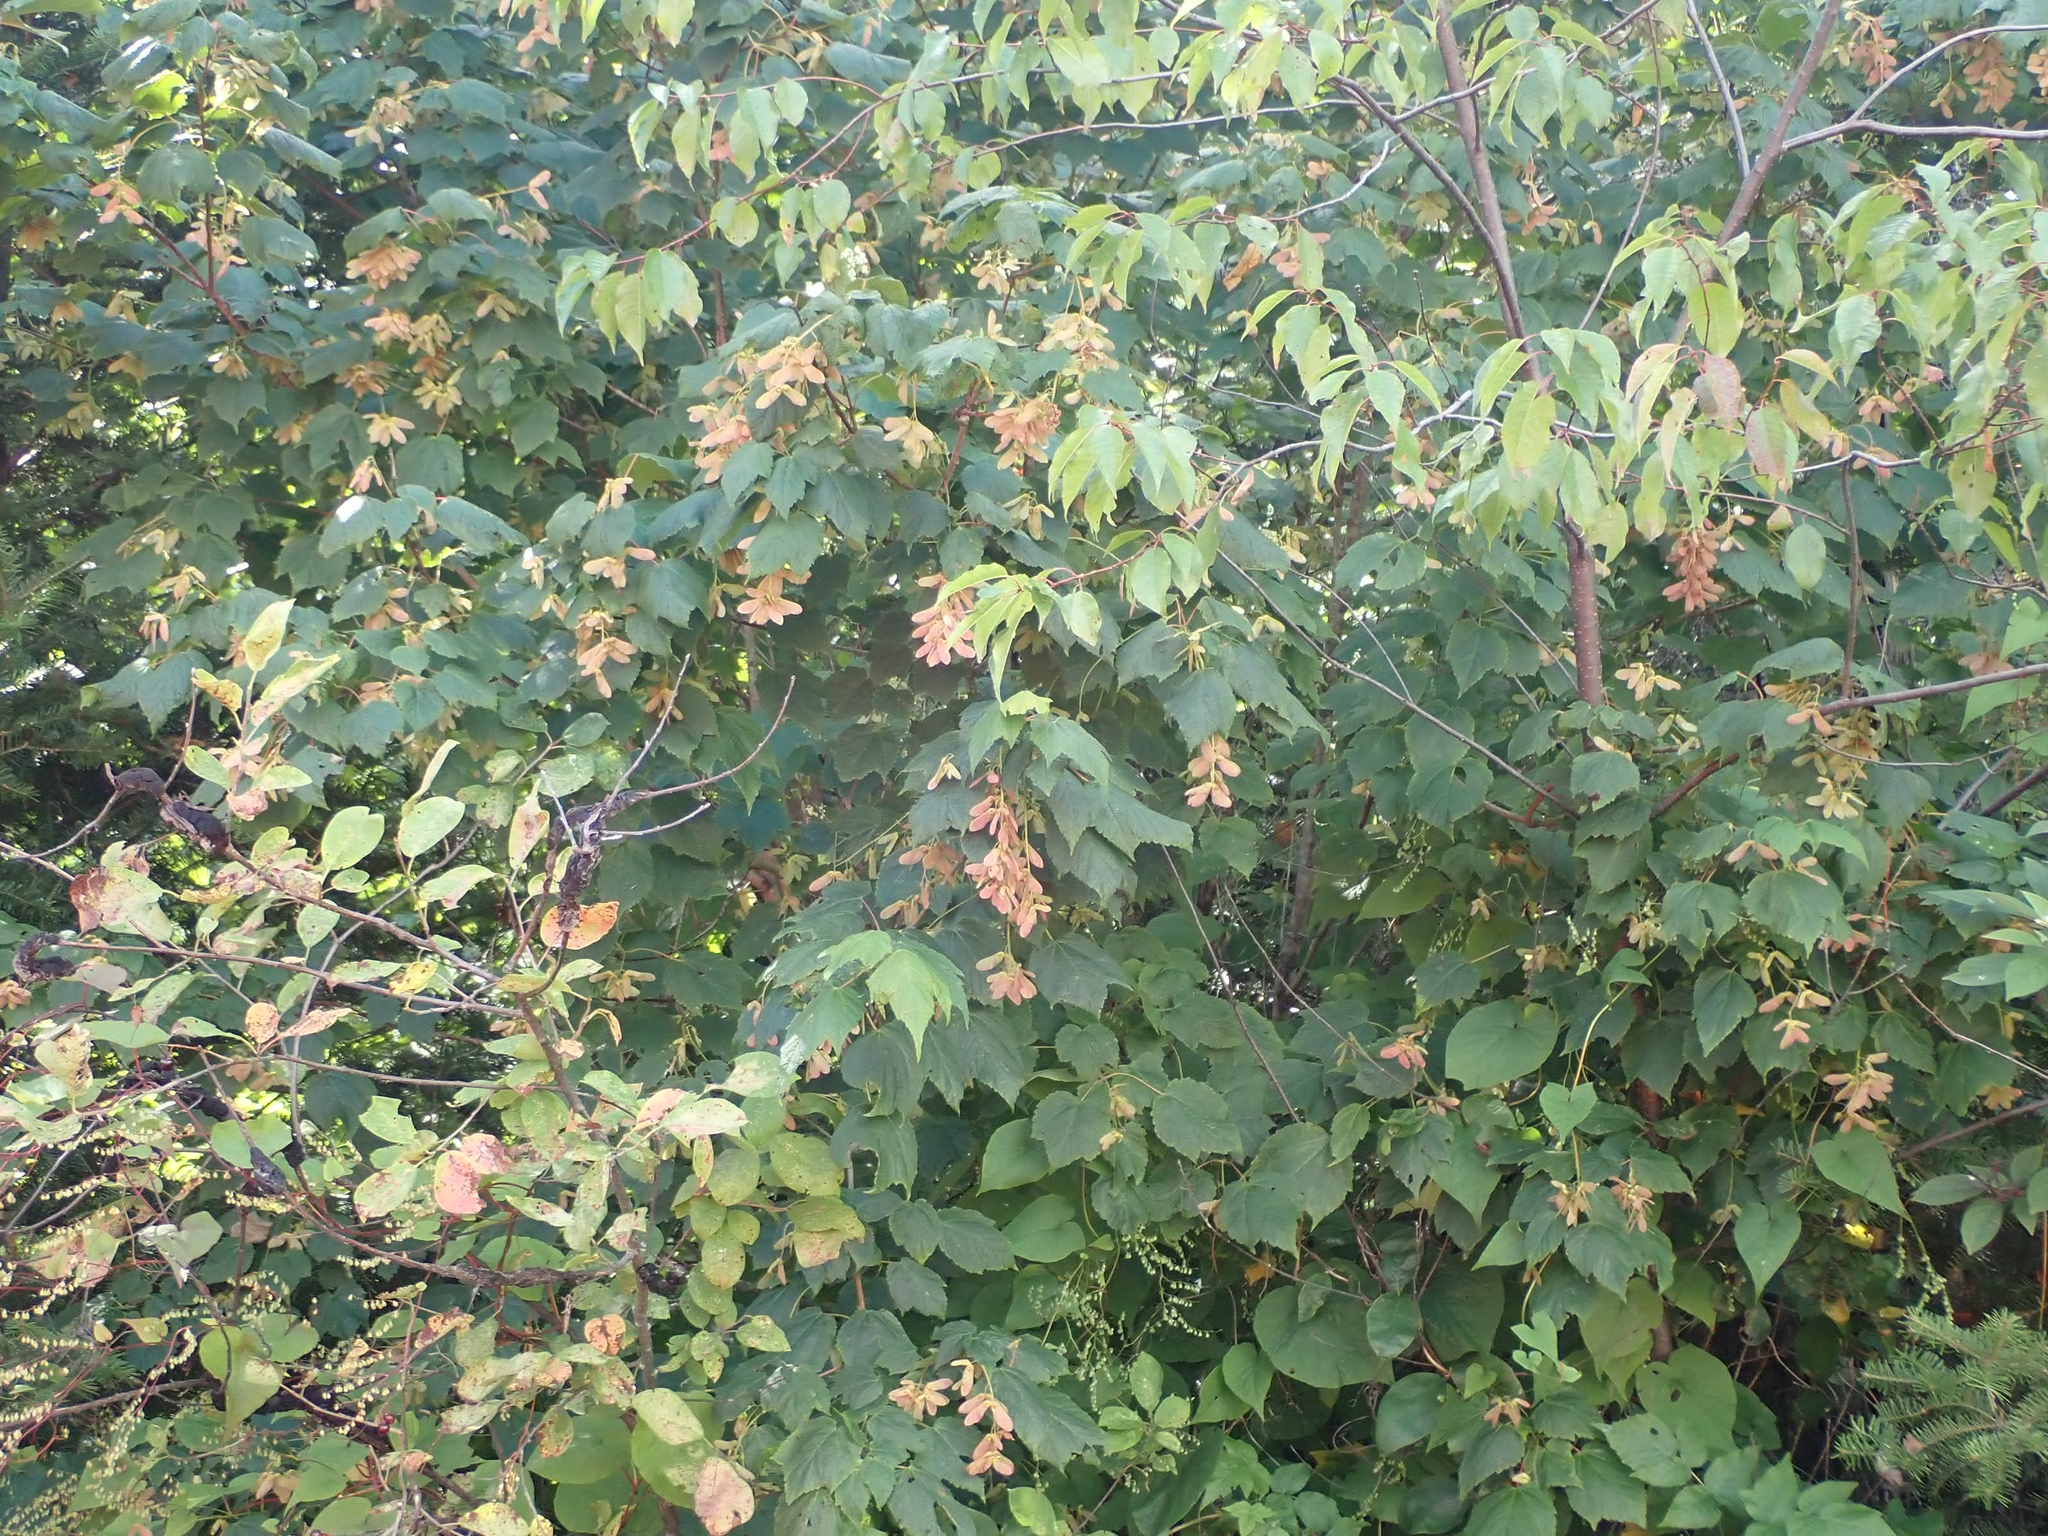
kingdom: Plantae
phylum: Tracheophyta
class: Magnoliopsida
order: Sapindales
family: Sapindaceae
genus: Acer
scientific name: Acer spicatum
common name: Mountain maple
